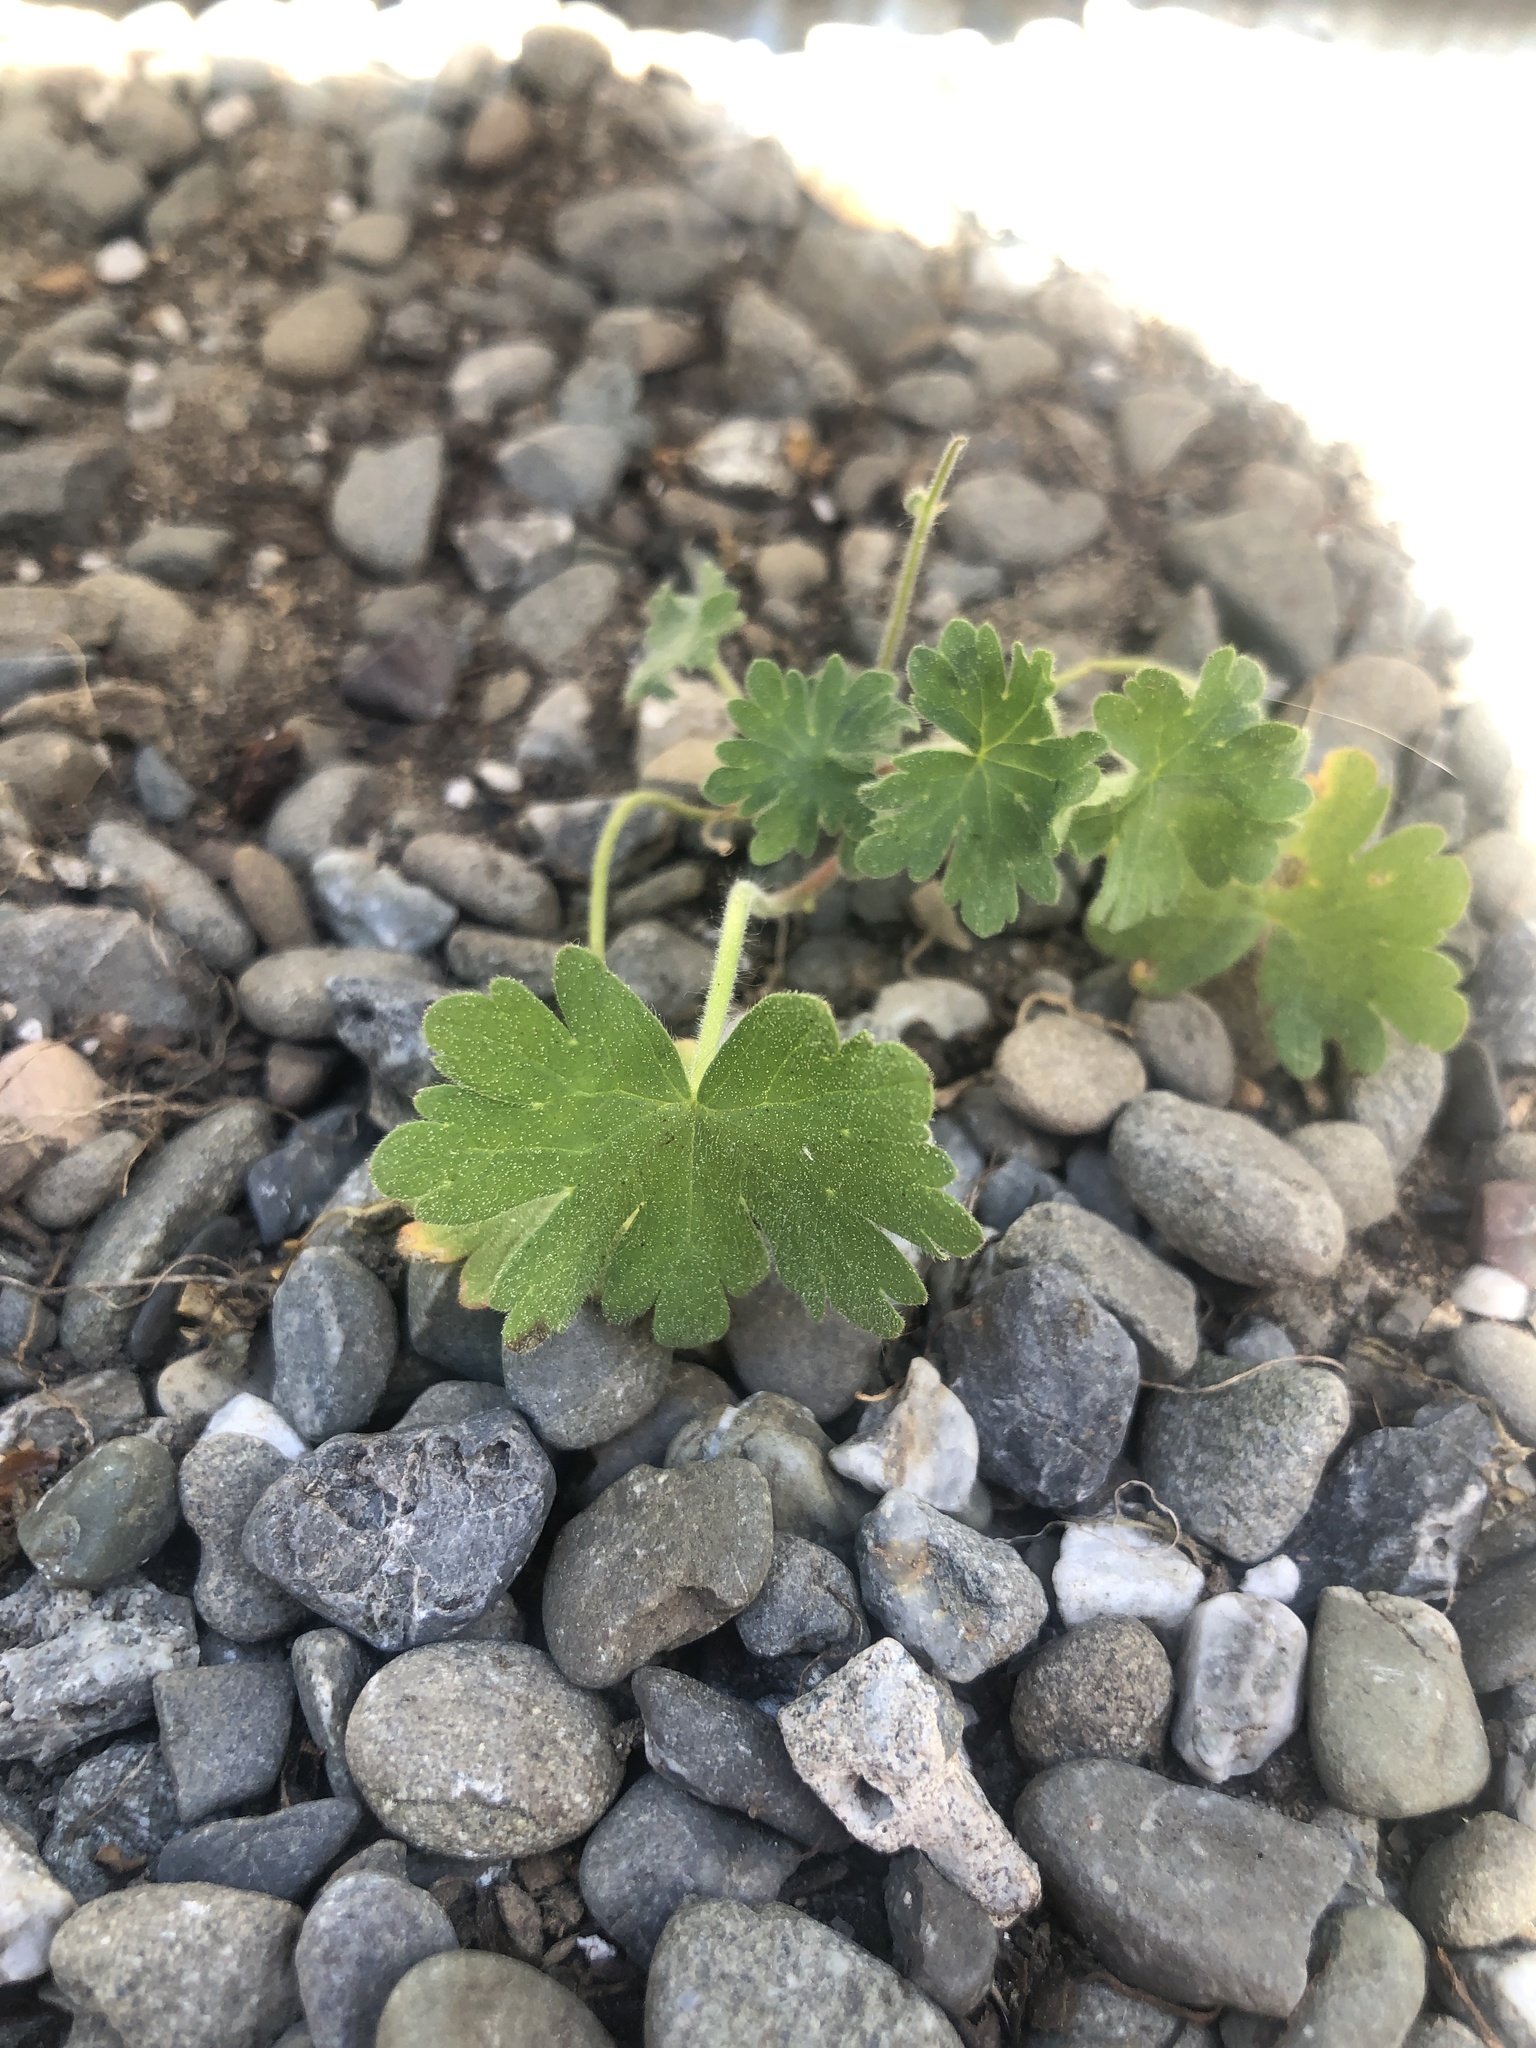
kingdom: Plantae
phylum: Tracheophyta
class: Magnoliopsida
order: Geraniales
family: Geraniaceae
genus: Geranium
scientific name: Geranium
